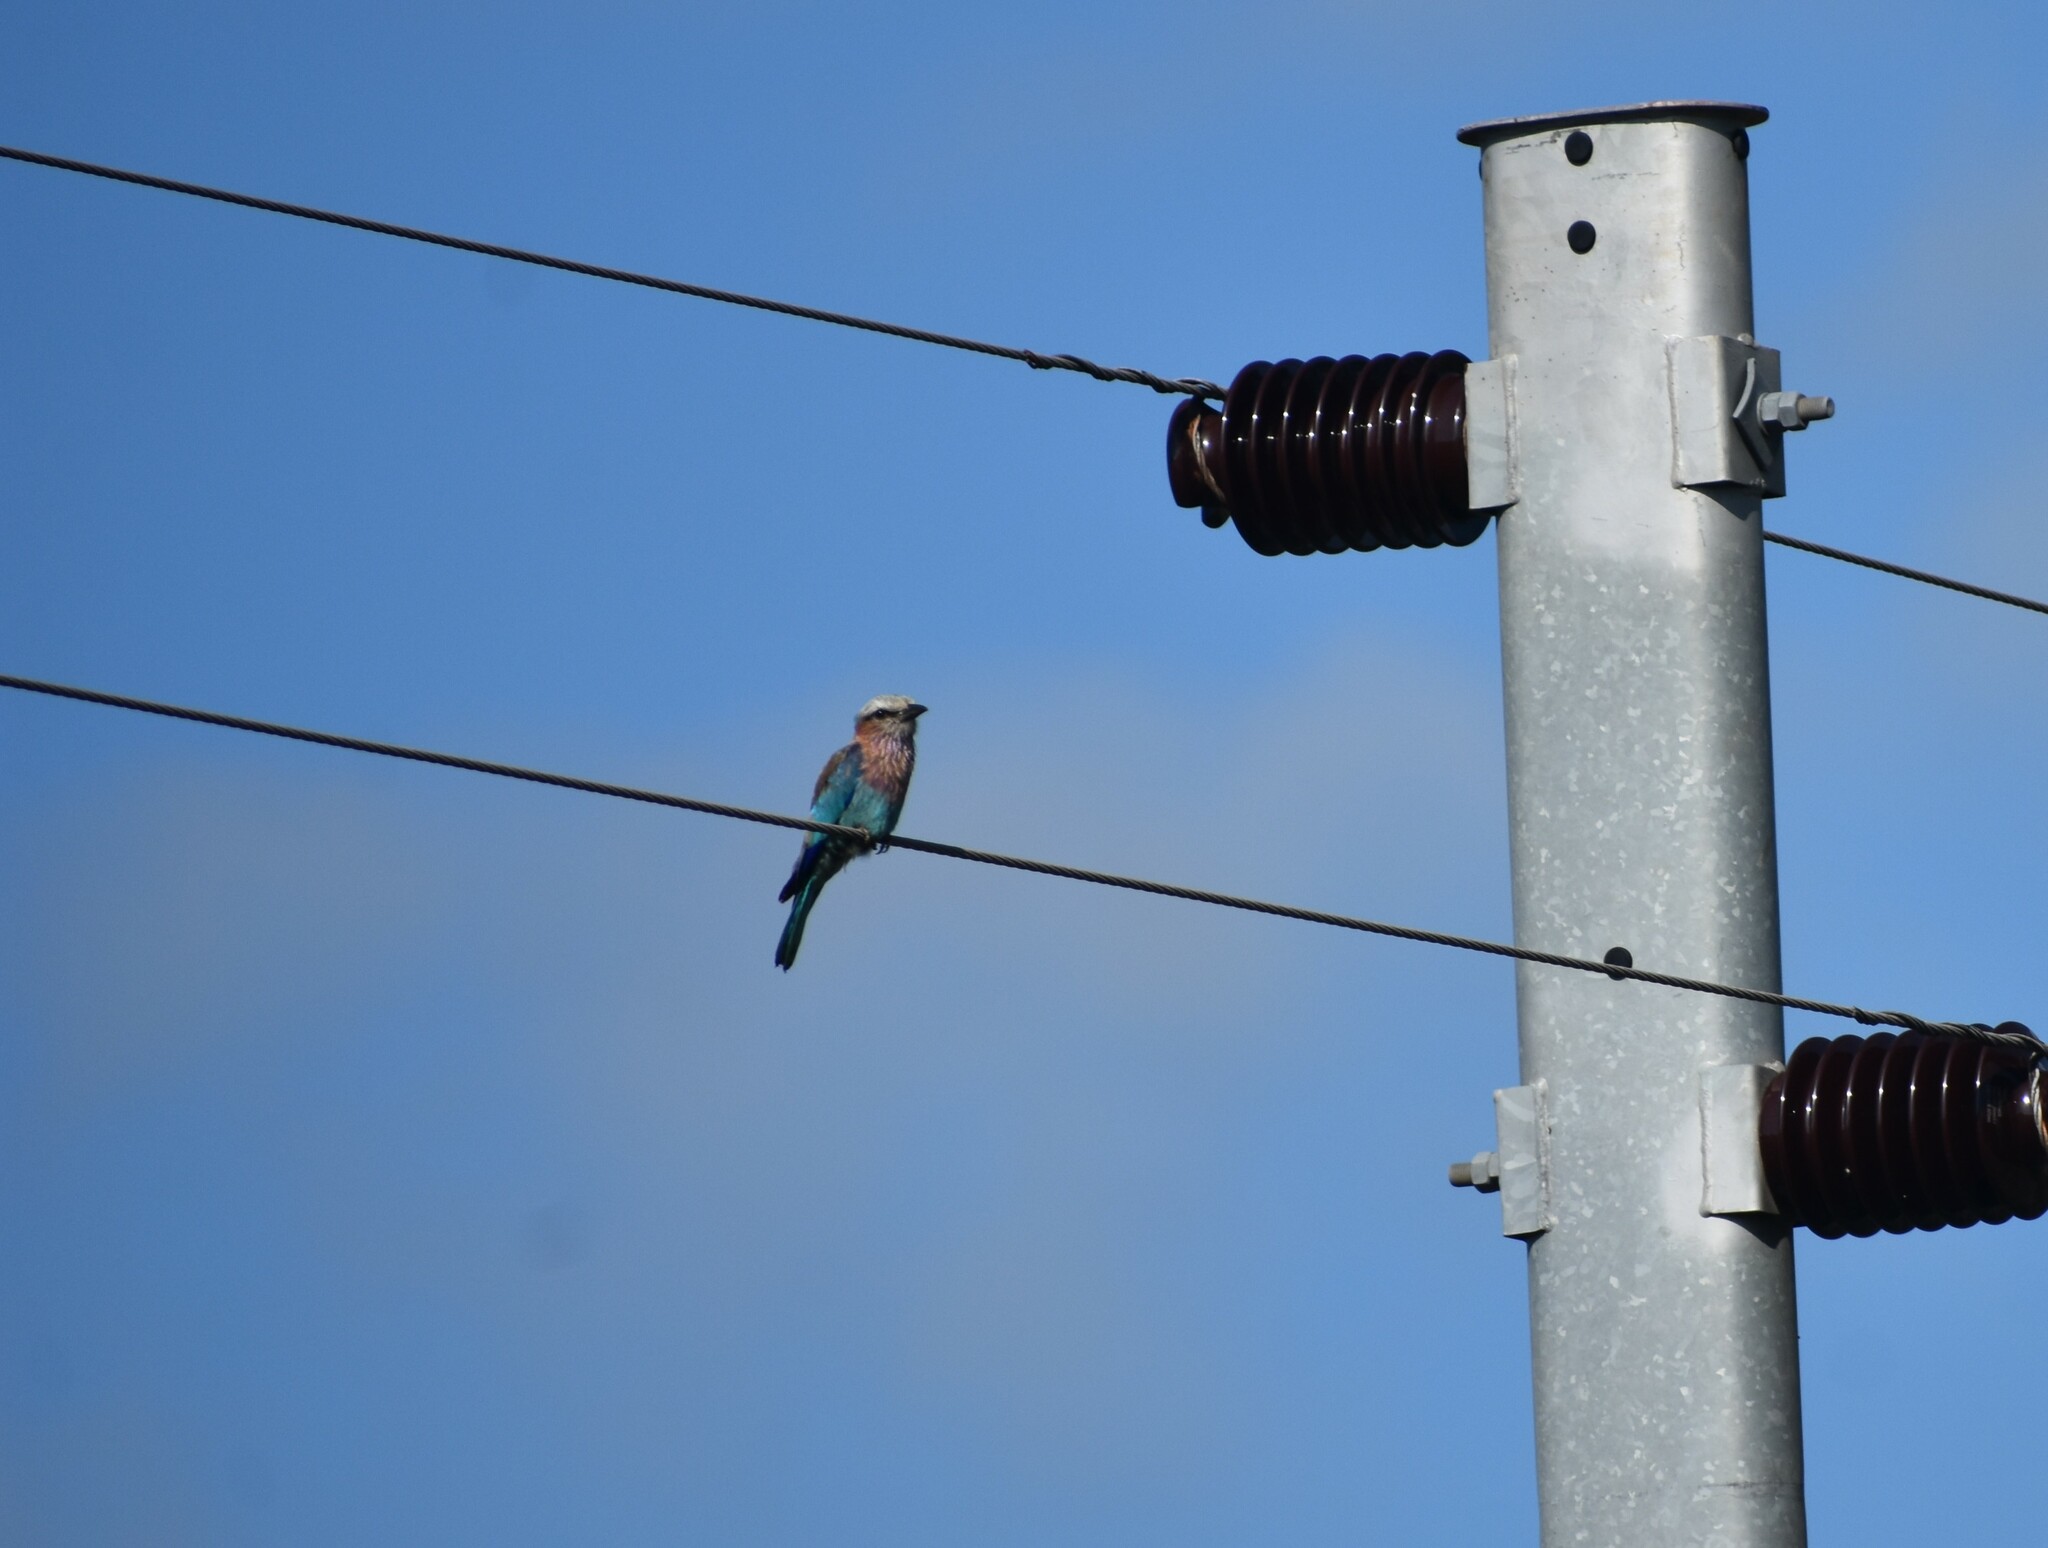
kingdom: Animalia
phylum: Chordata
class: Aves
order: Coraciiformes
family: Coraciidae
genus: Coracias
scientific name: Coracias caudatus
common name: Lilac-breasted roller
